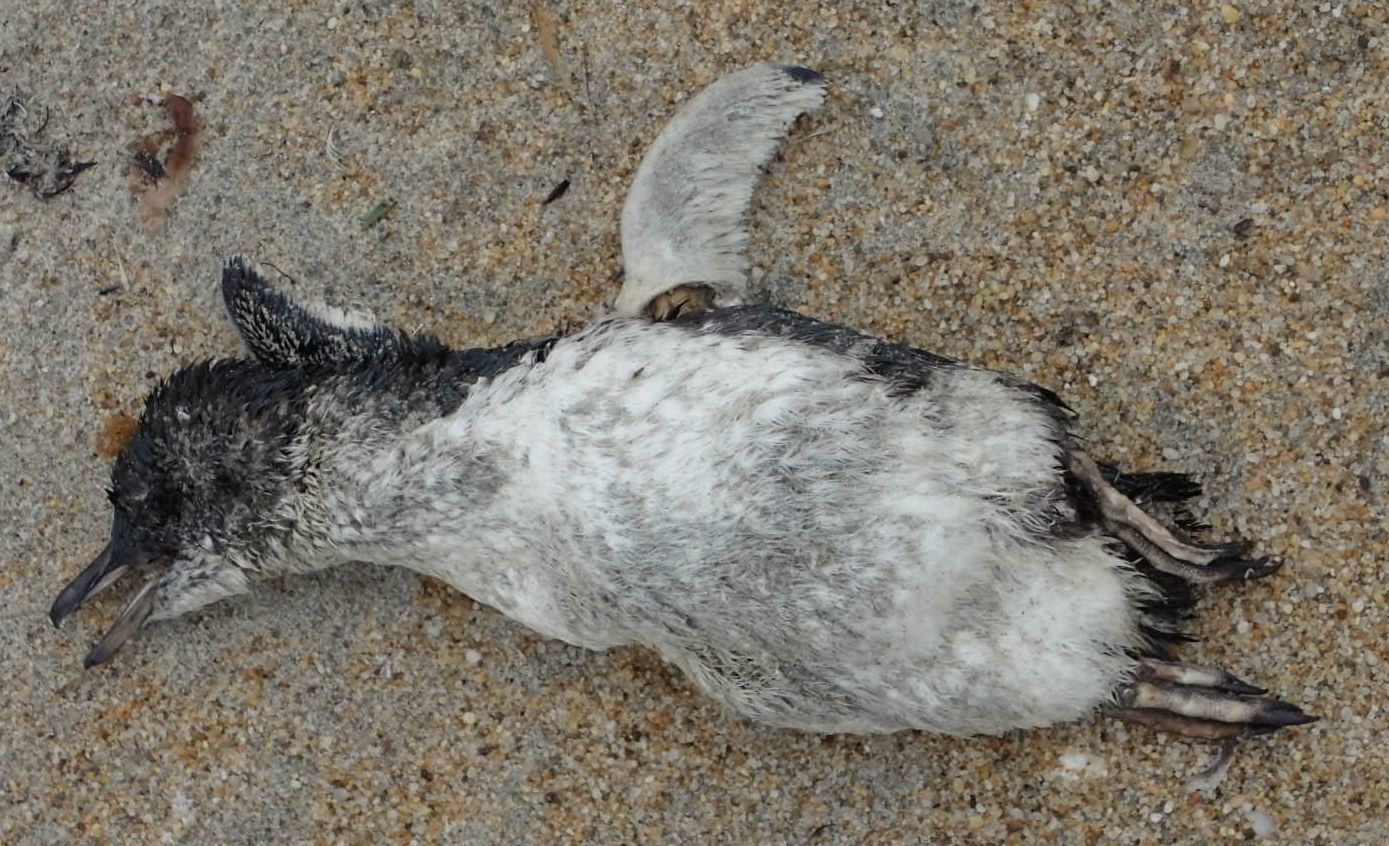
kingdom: Animalia
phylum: Chordata
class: Aves
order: Sphenisciformes
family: Spheniscidae
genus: Eudyptula
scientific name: Eudyptula minor
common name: Little penguin
